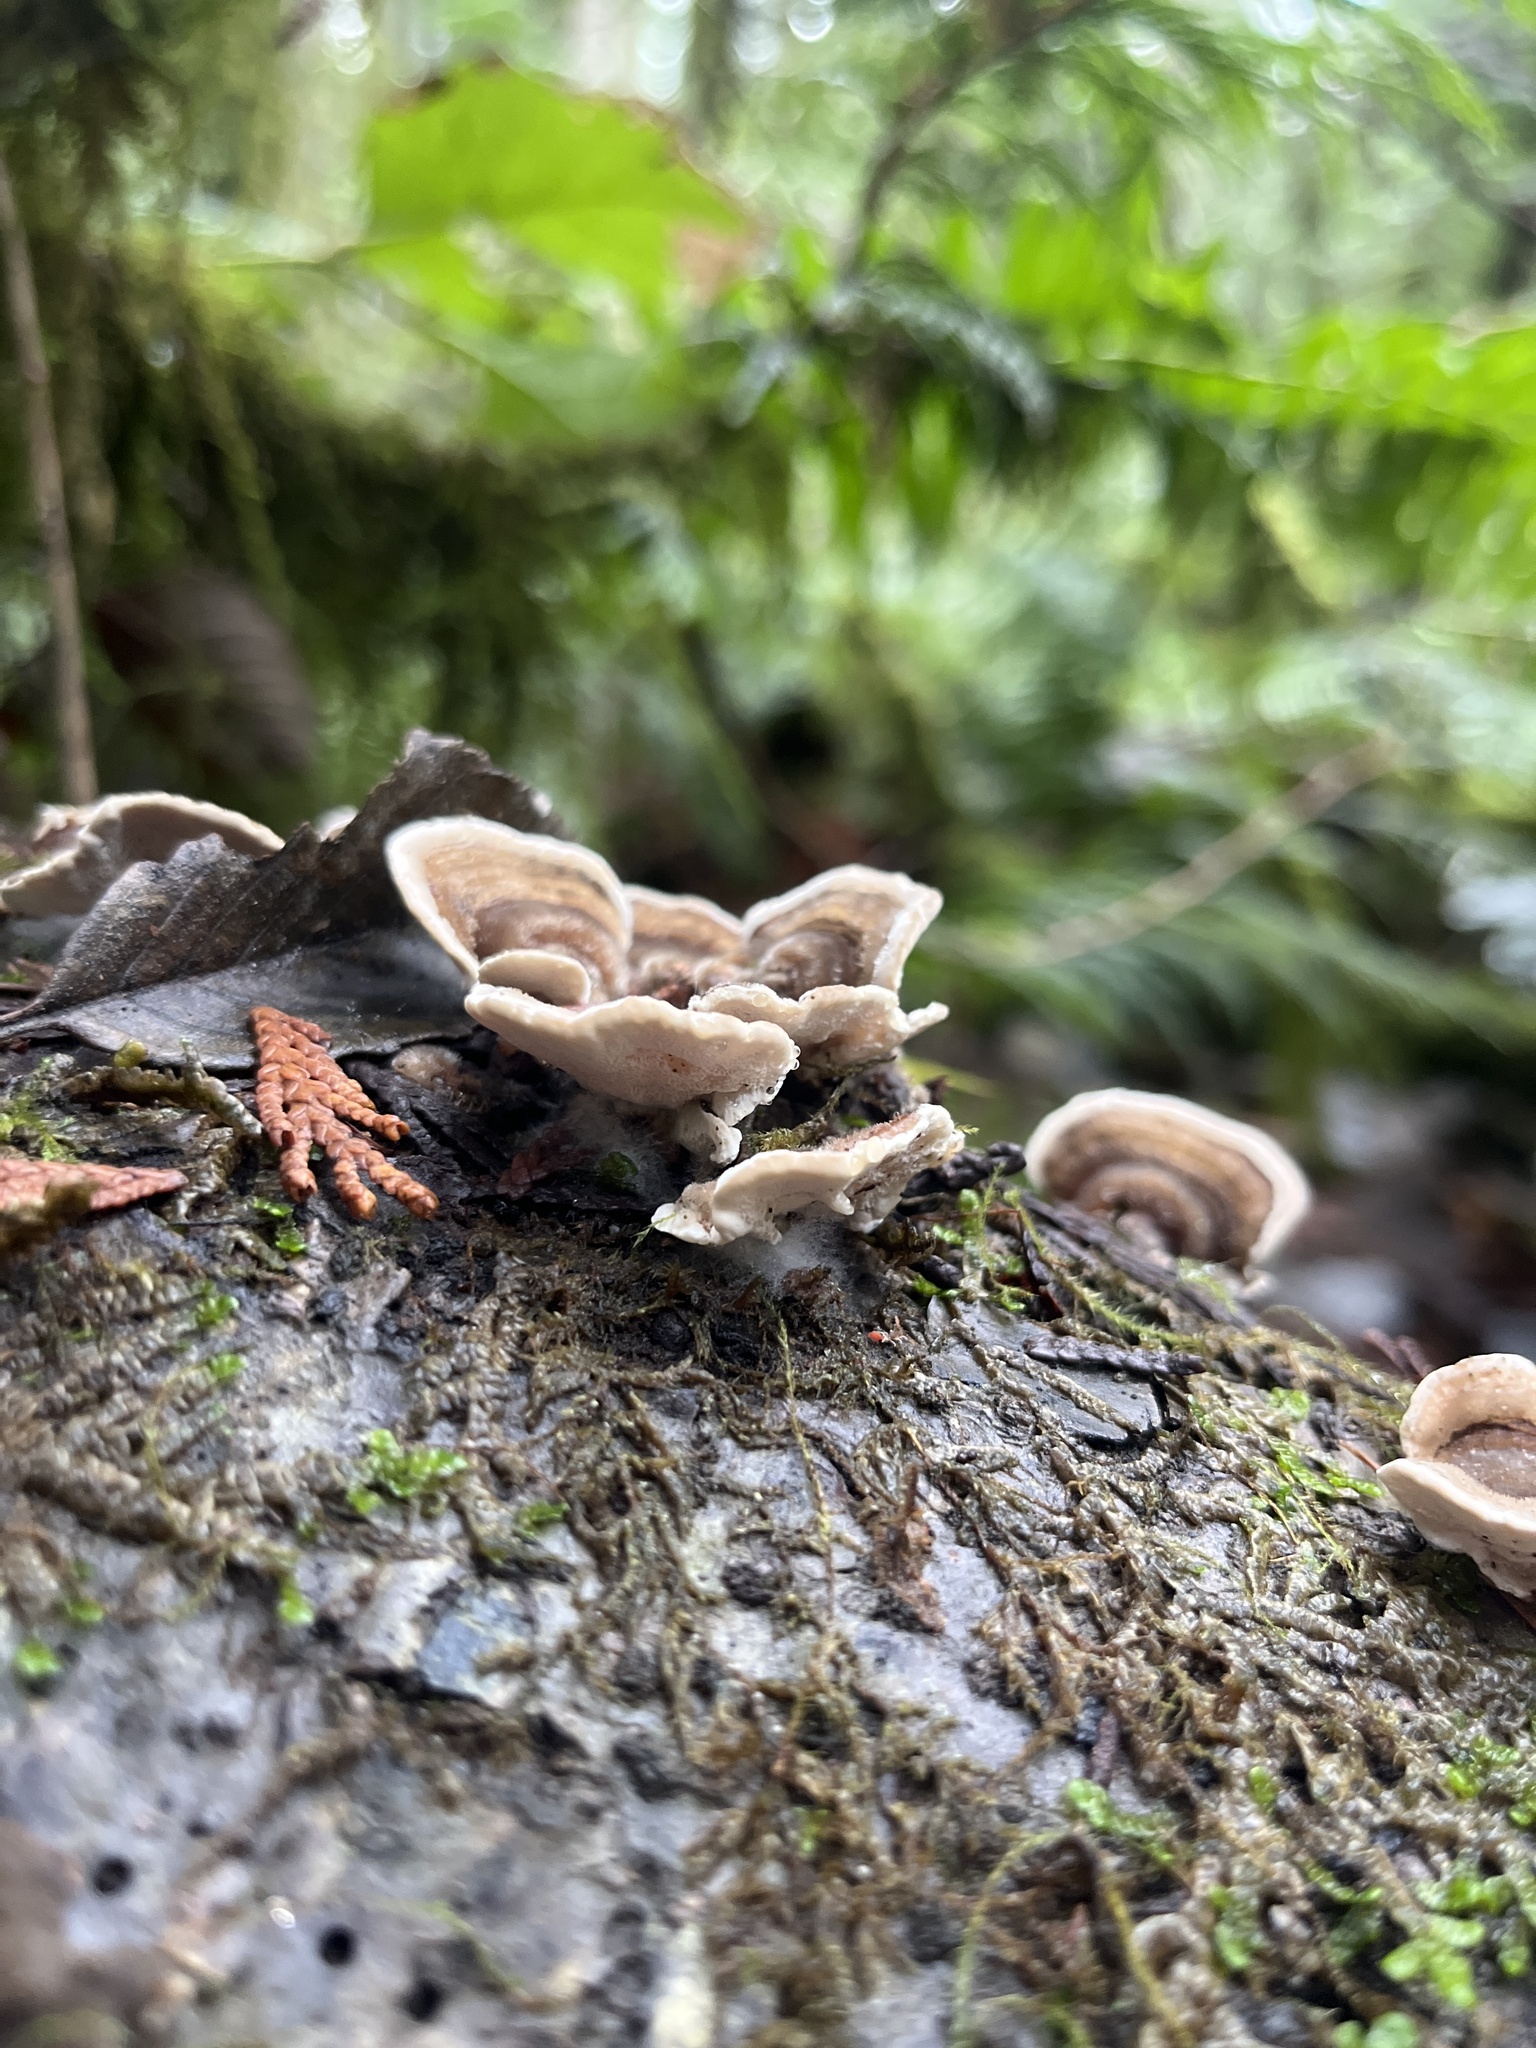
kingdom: Fungi
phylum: Basidiomycota
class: Agaricomycetes
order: Polyporales
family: Polyporaceae
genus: Trametes
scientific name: Trametes versicolor
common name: Turkeytail
